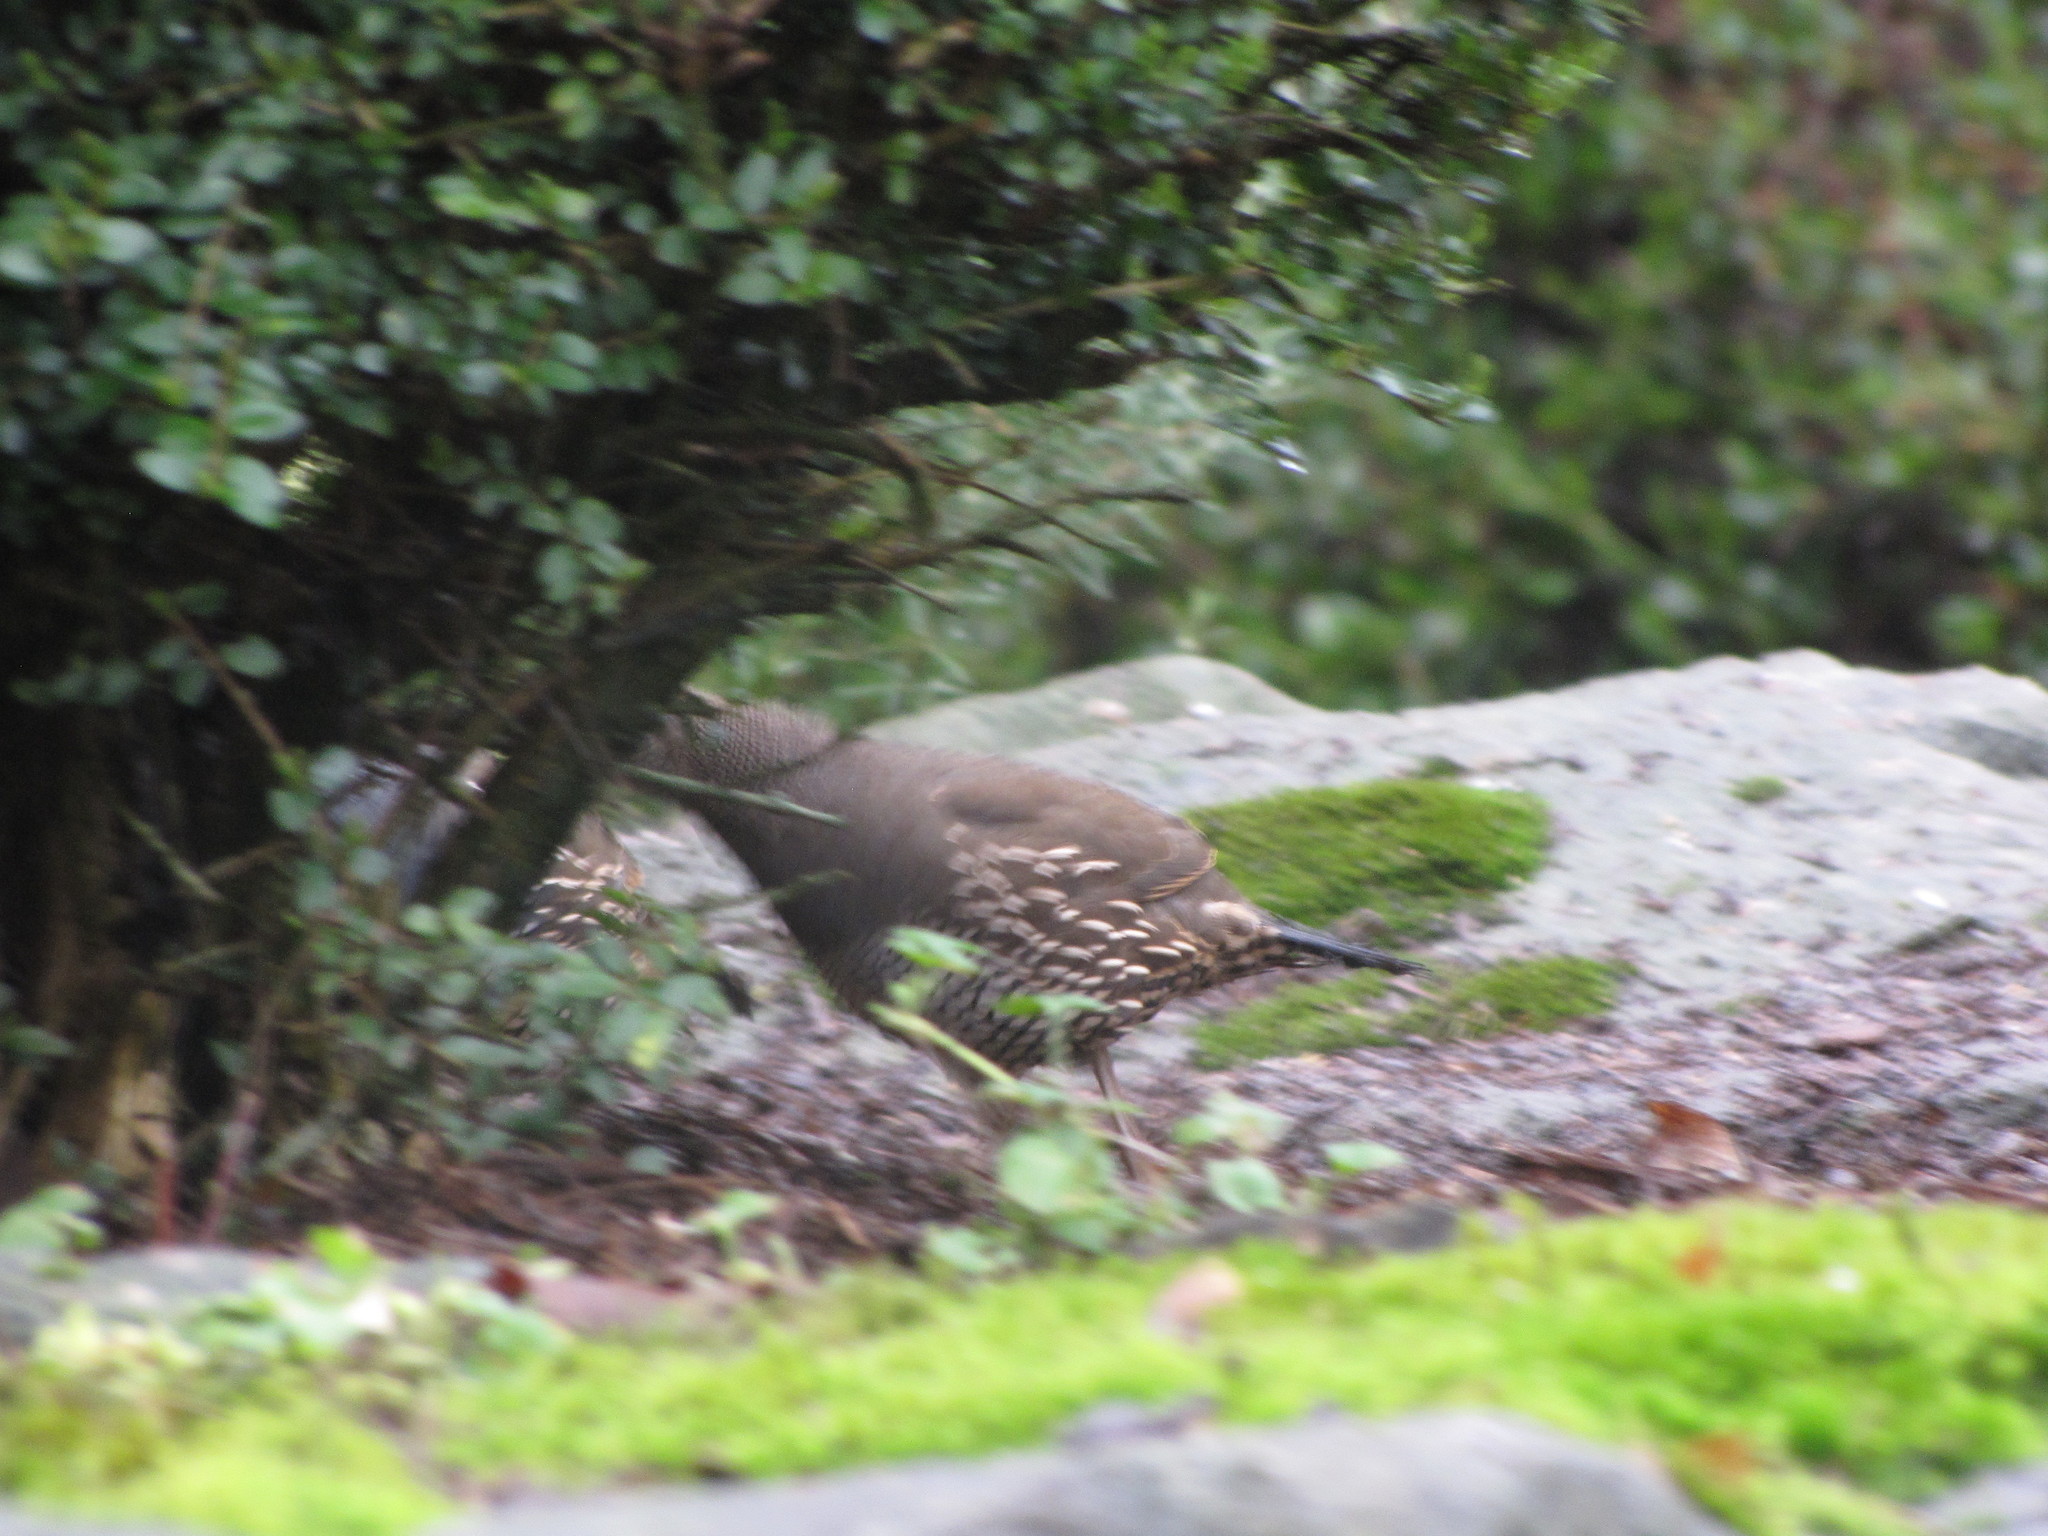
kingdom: Animalia
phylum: Chordata
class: Aves
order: Galliformes
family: Odontophoridae
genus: Callipepla
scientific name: Callipepla californica
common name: California quail
